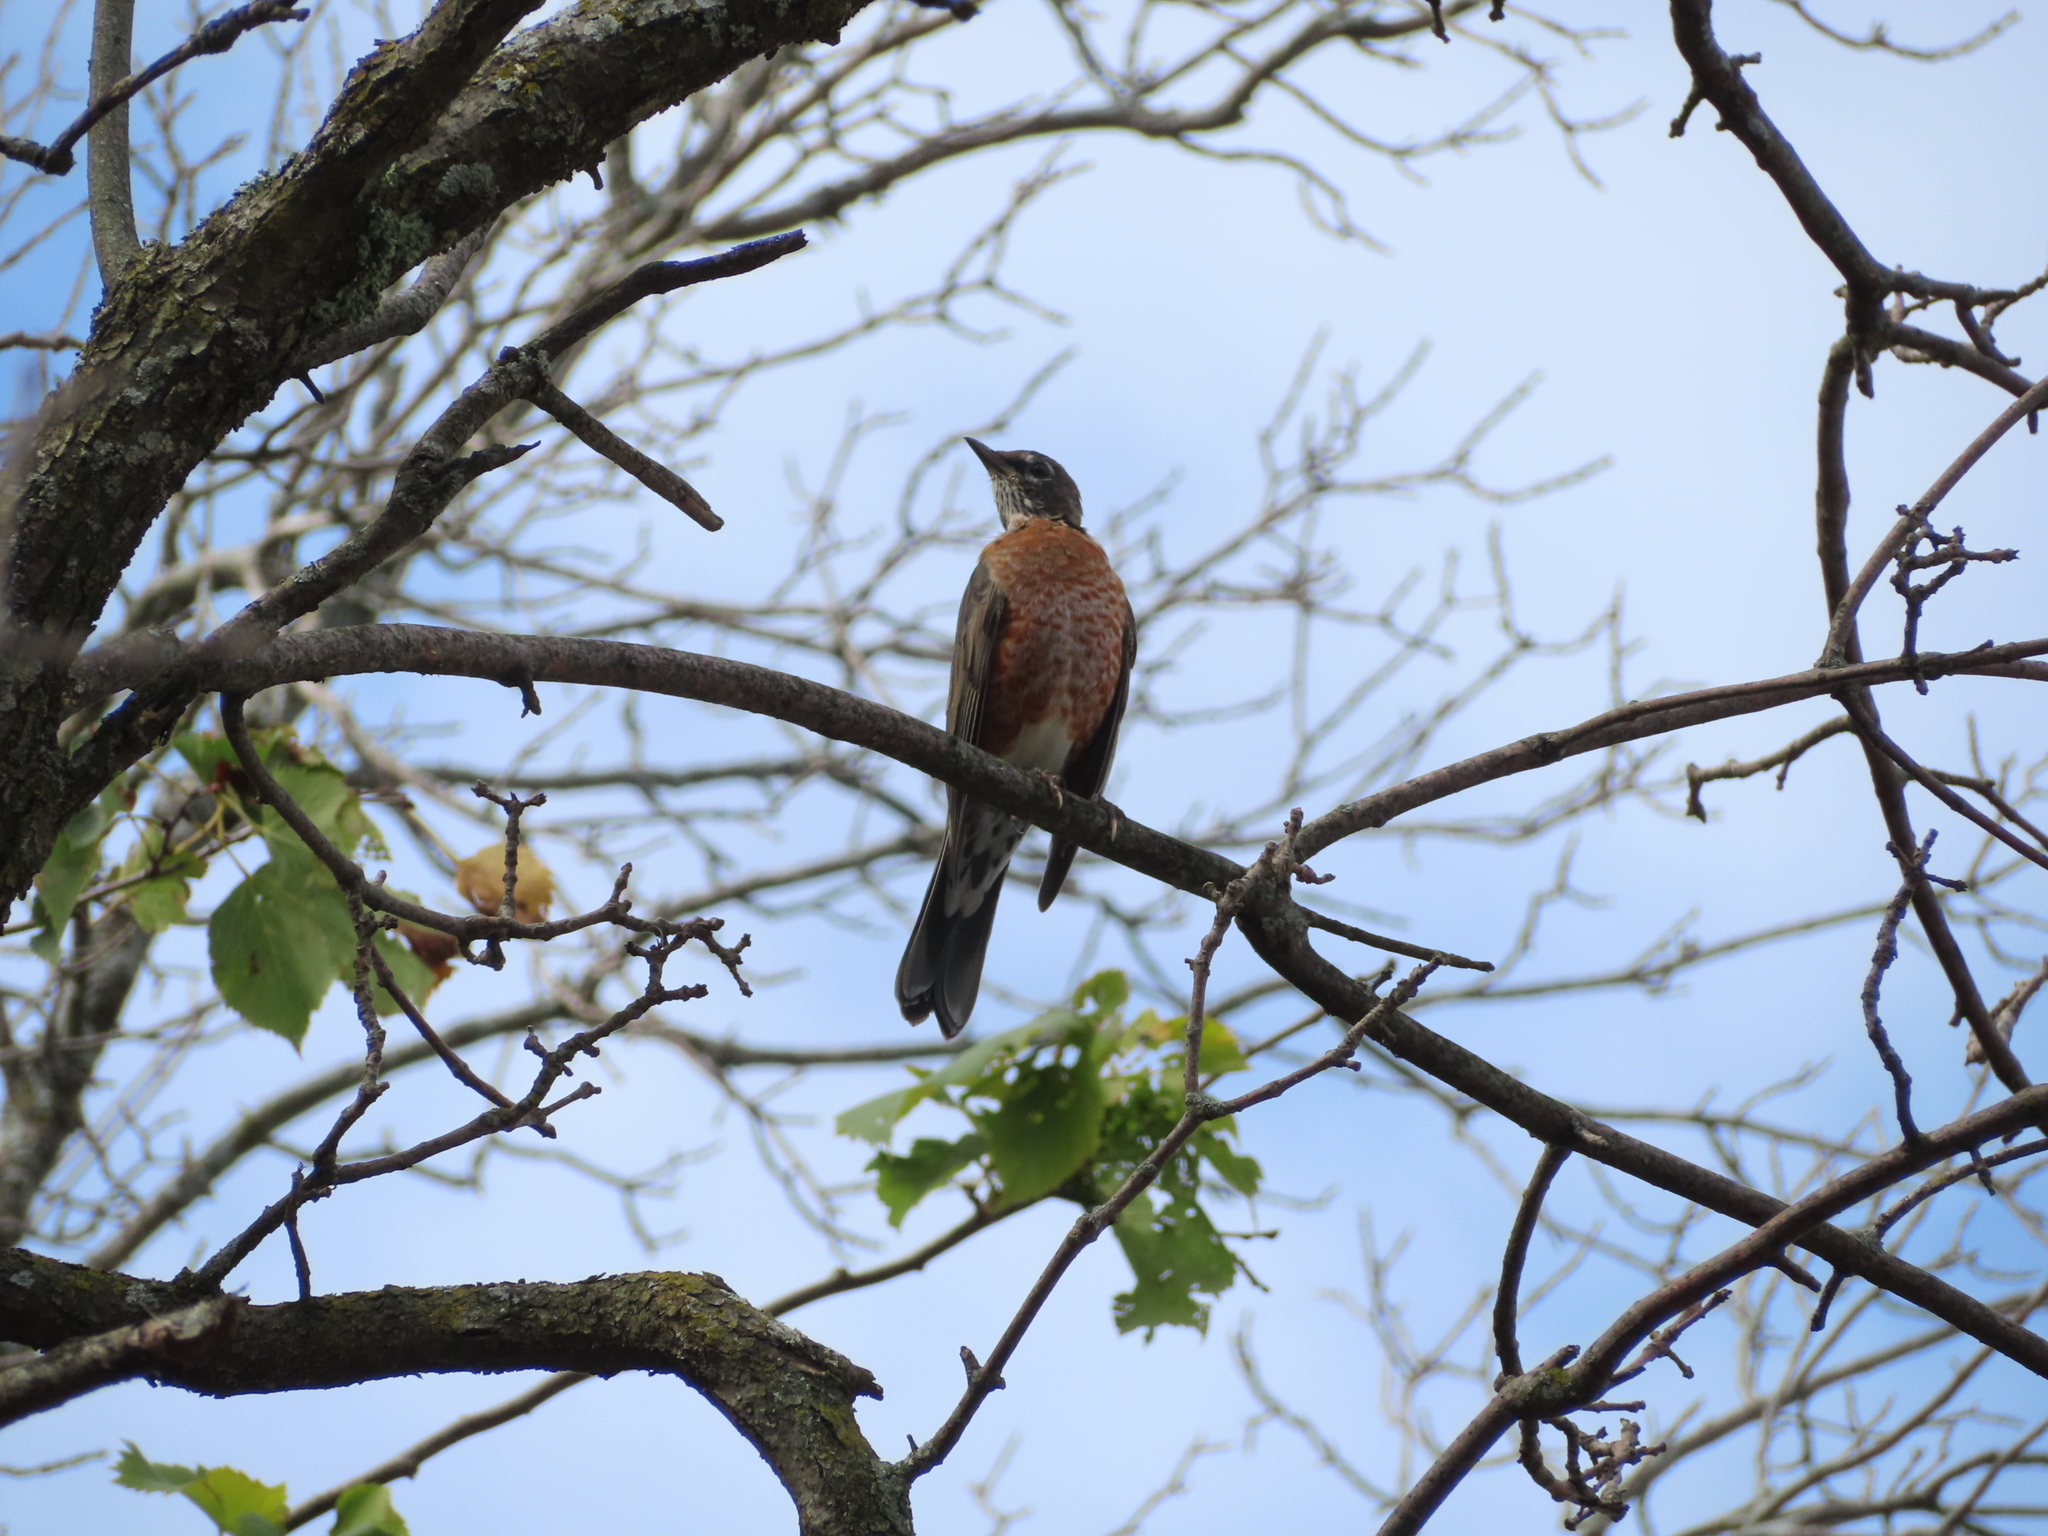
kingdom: Animalia
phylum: Chordata
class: Aves
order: Passeriformes
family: Turdidae
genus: Turdus
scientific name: Turdus migratorius
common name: American robin
